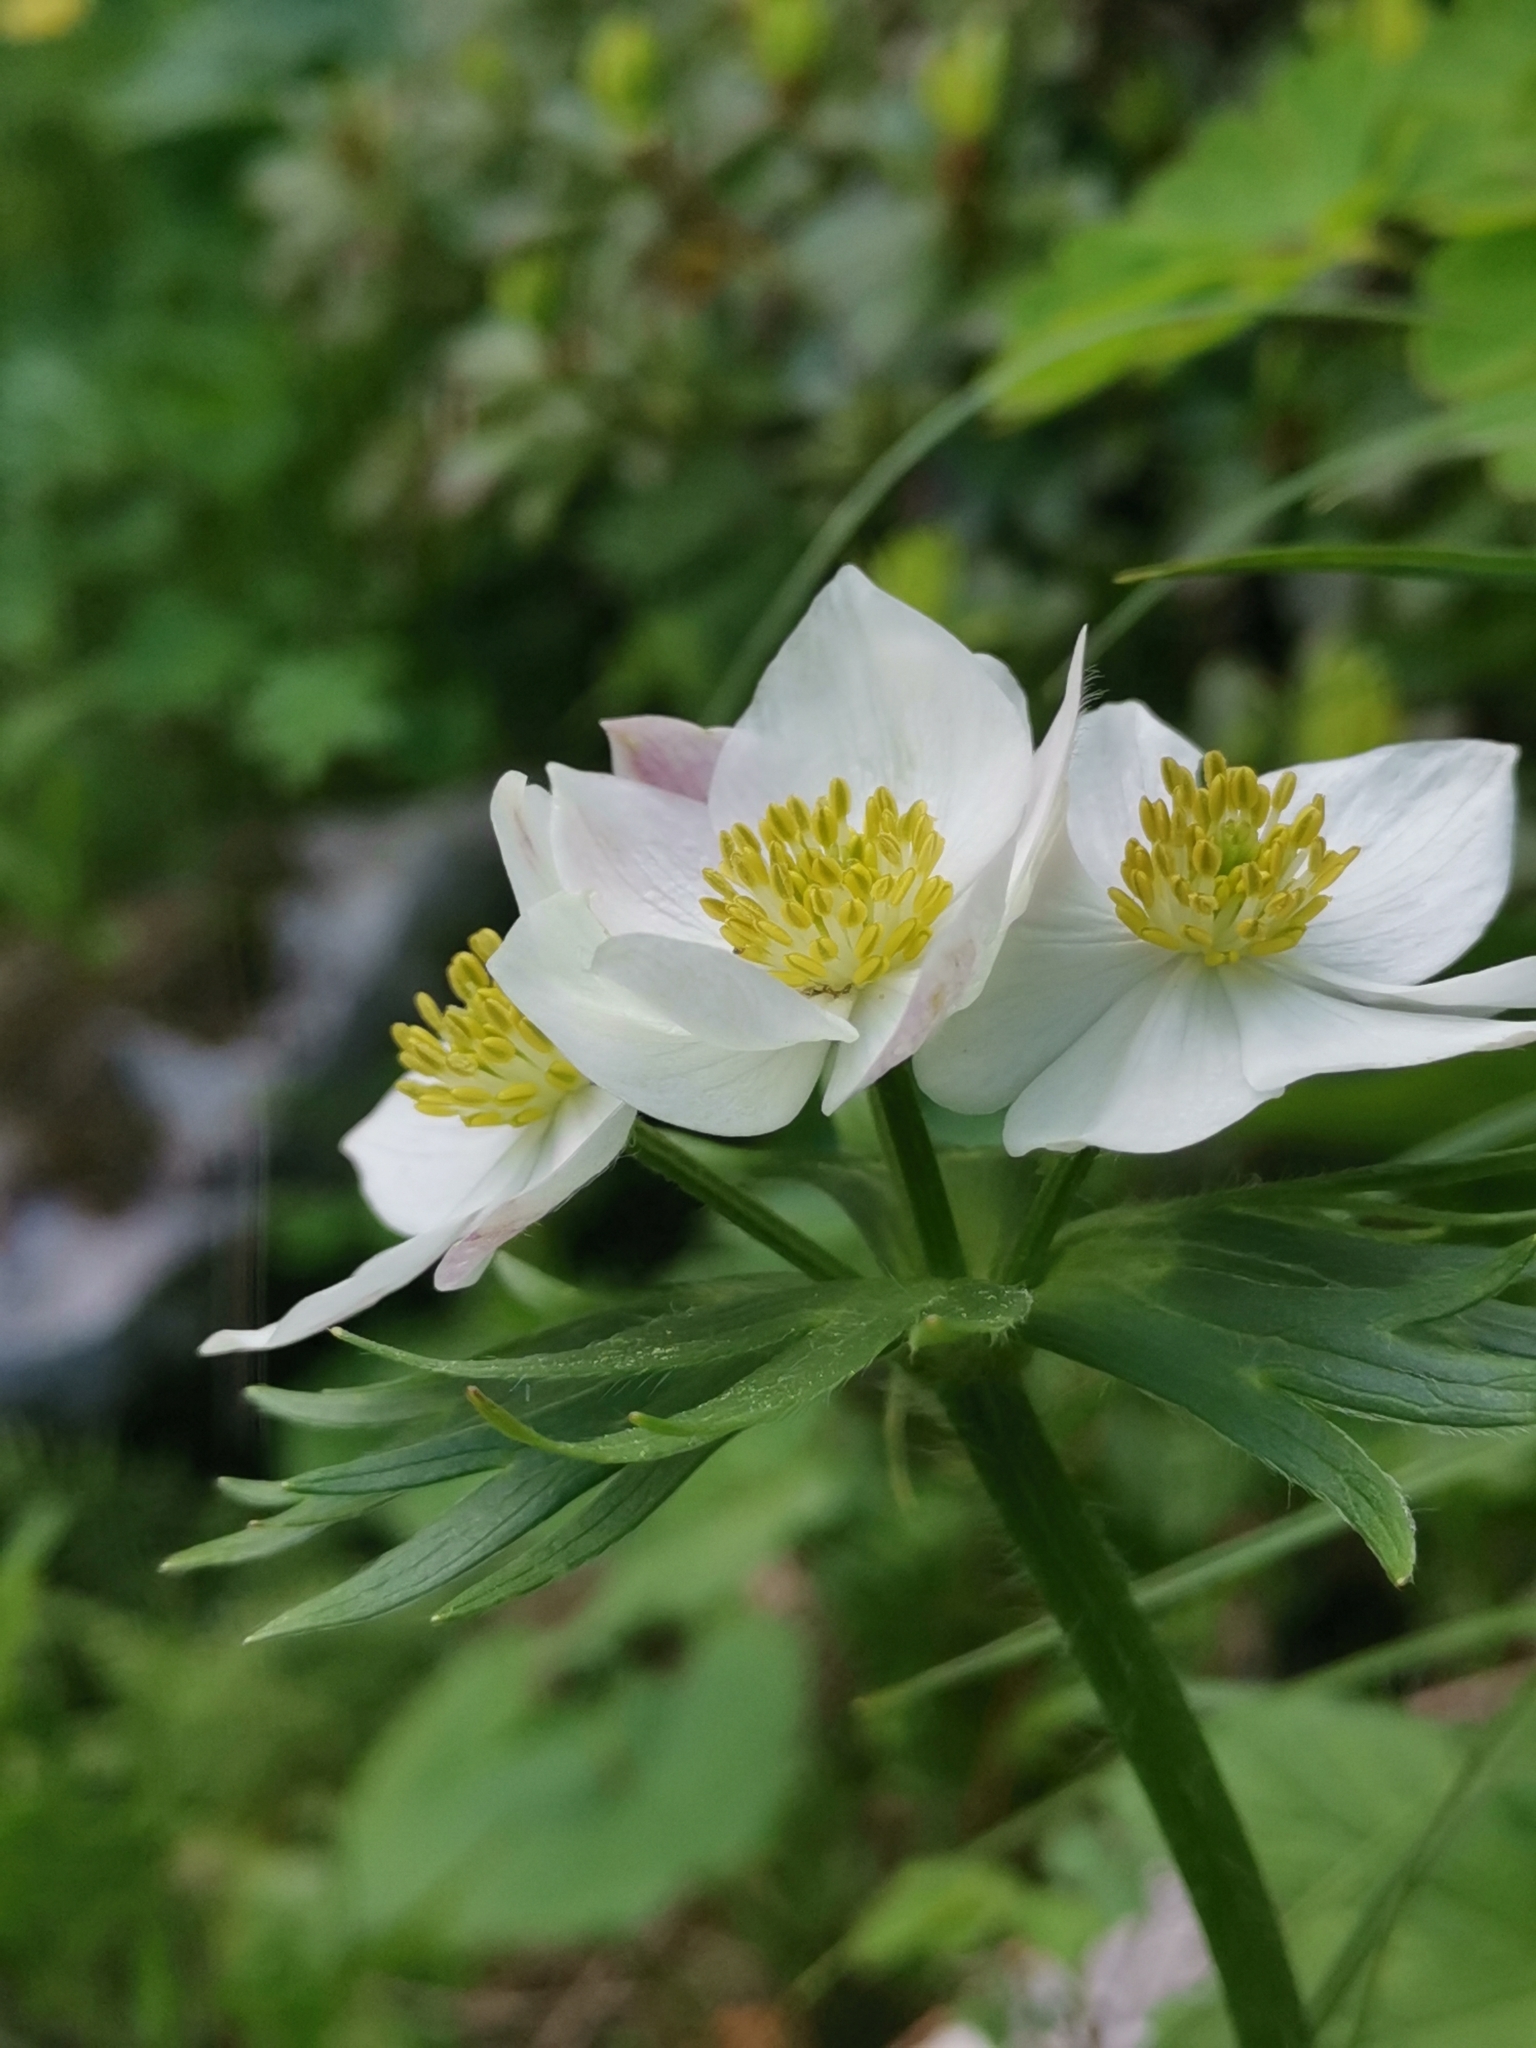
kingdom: Plantae
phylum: Tracheophyta
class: Magnoliopsida
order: Ranunculales
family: Ranunculaceae
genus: Anemonastrum
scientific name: Anemonastrum narcissiflorum
